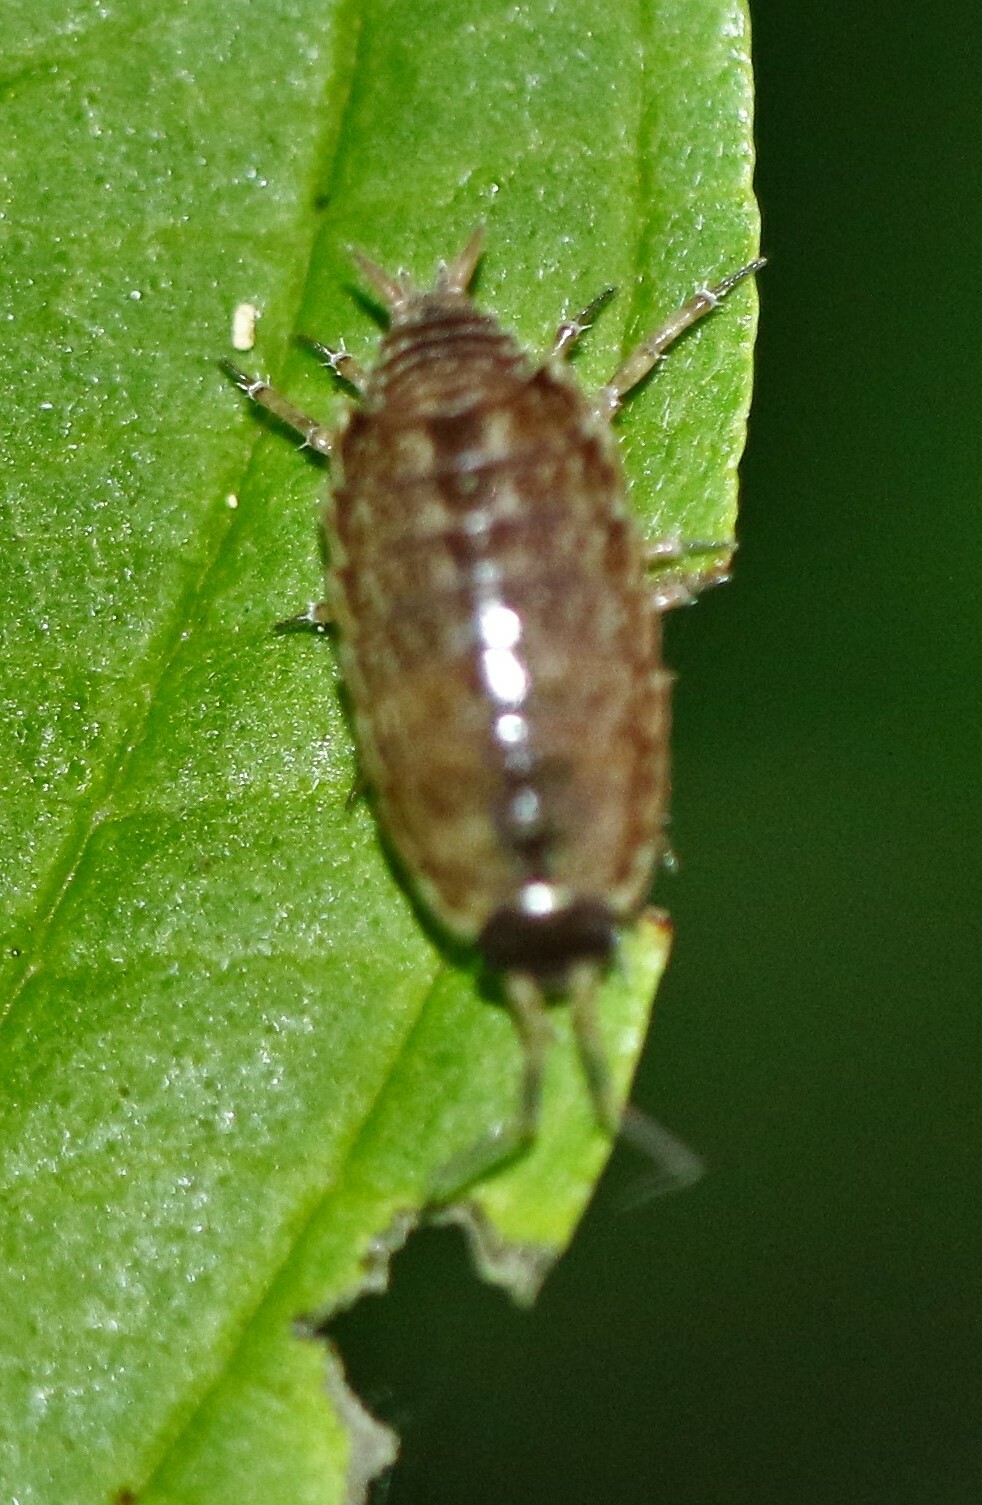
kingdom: Animalia
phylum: Arthropoda
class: Malacostraca
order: Isopoda
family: Philosciidae
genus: Philoscia
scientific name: Philoscia muscorum
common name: Common striped woodlouse
